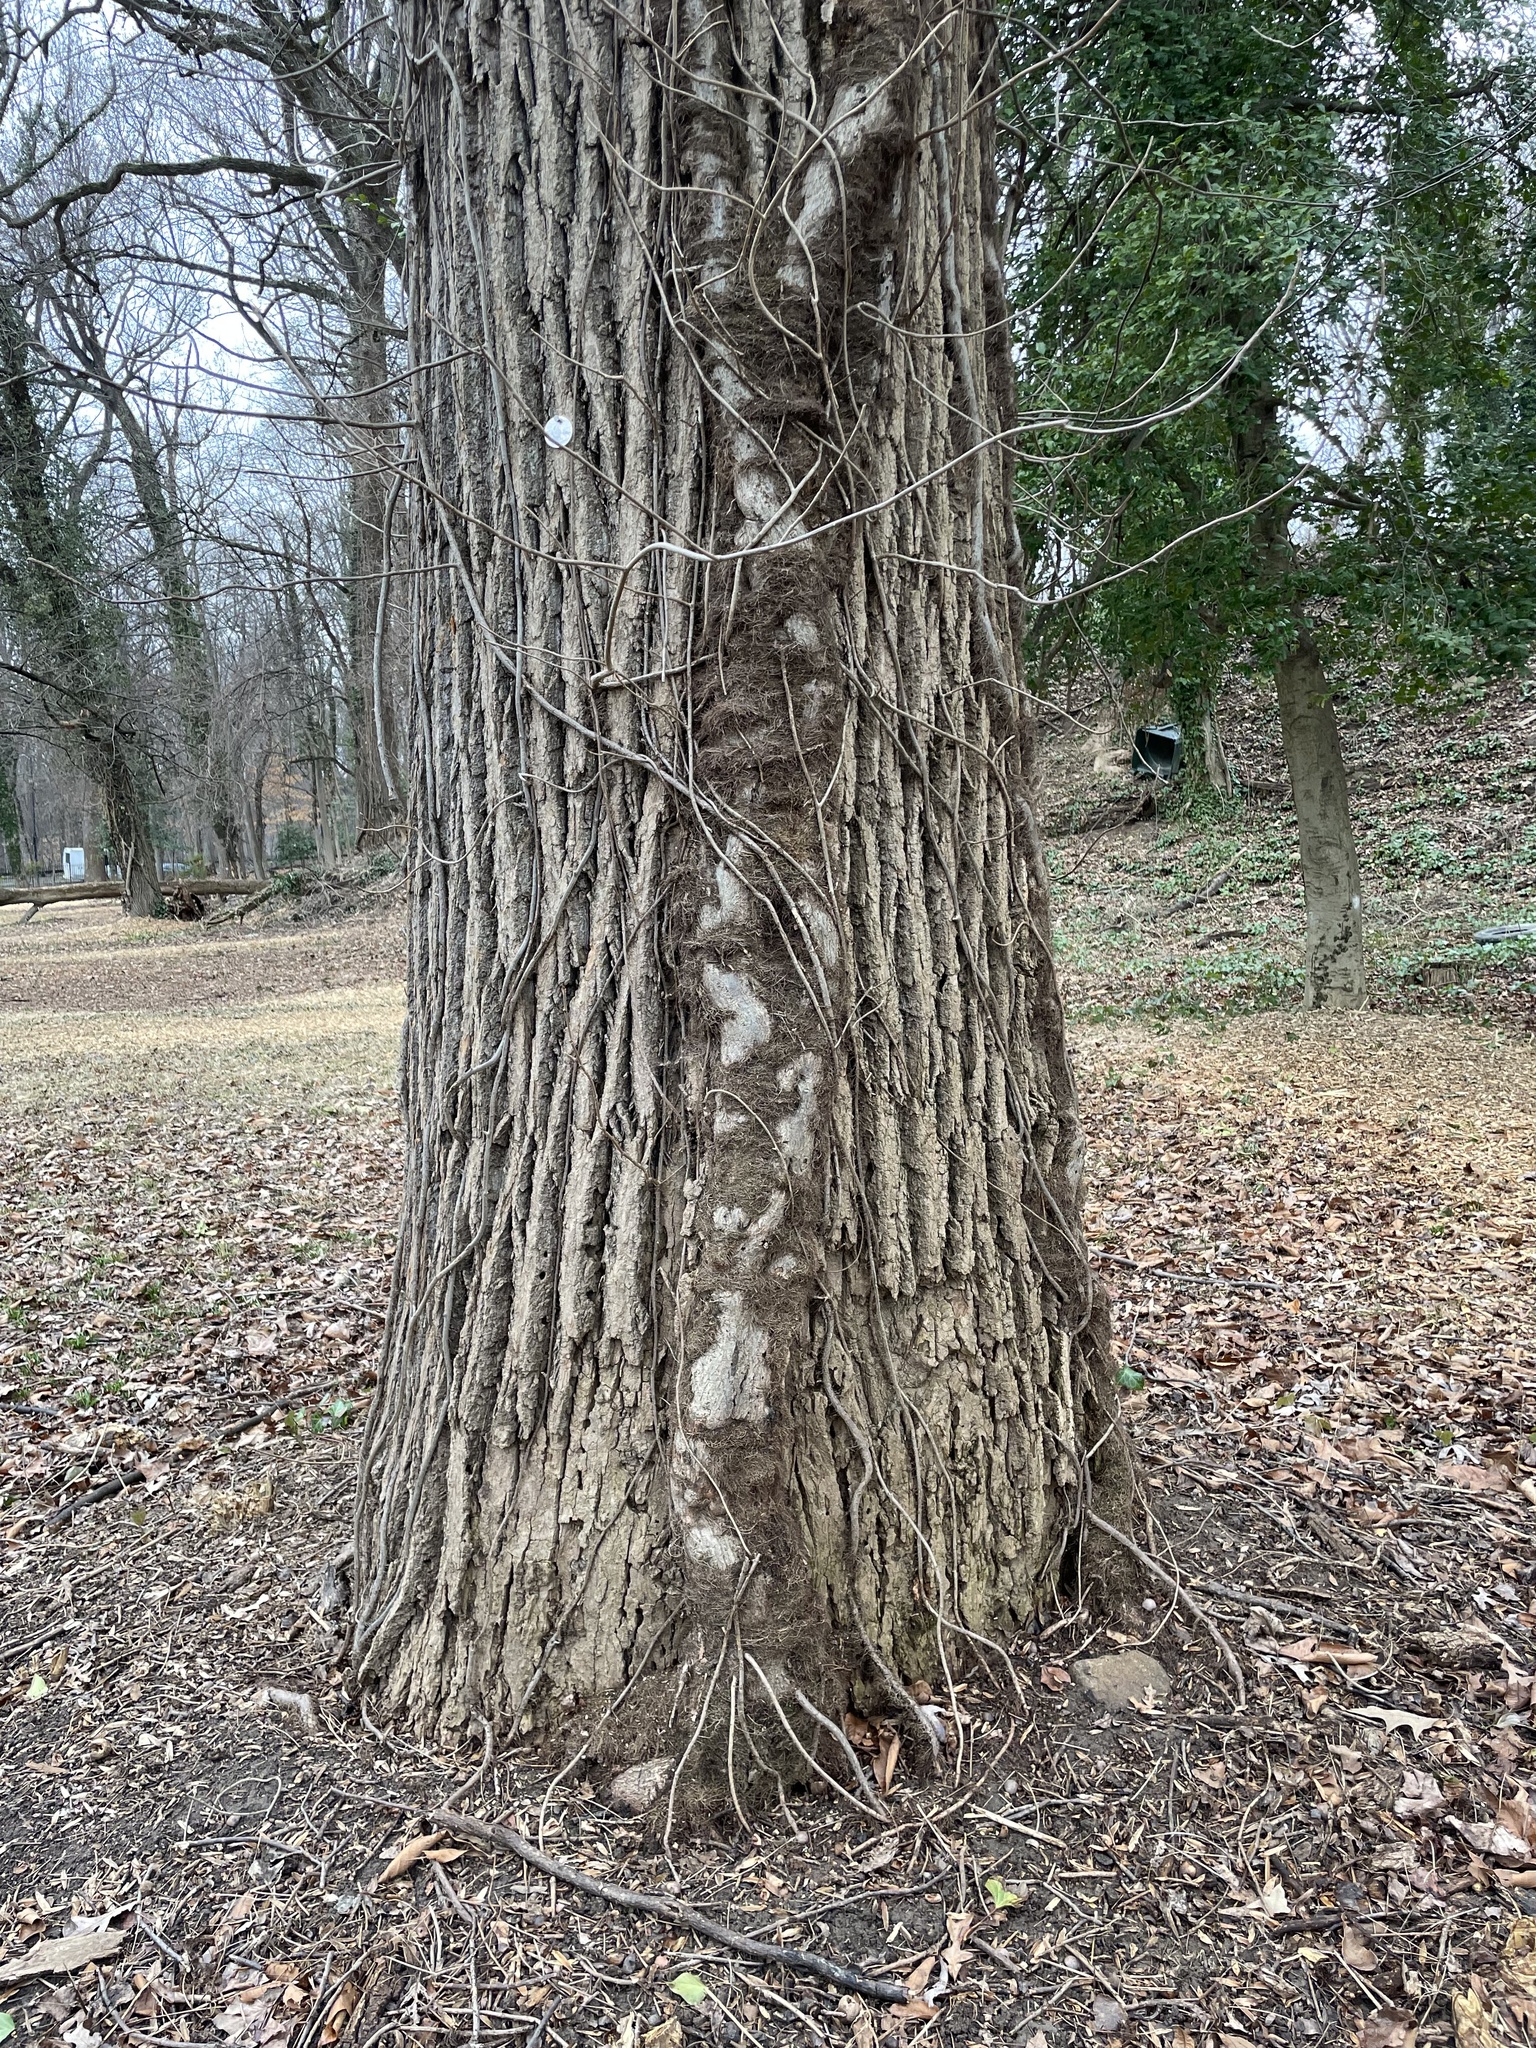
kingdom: Plantae
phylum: Tracheophyta
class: Magnoliopsida
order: Sapindales
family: Anacardiaceae
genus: Toxicodendron
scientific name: Toxicodendron radicans
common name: Poison ivy
